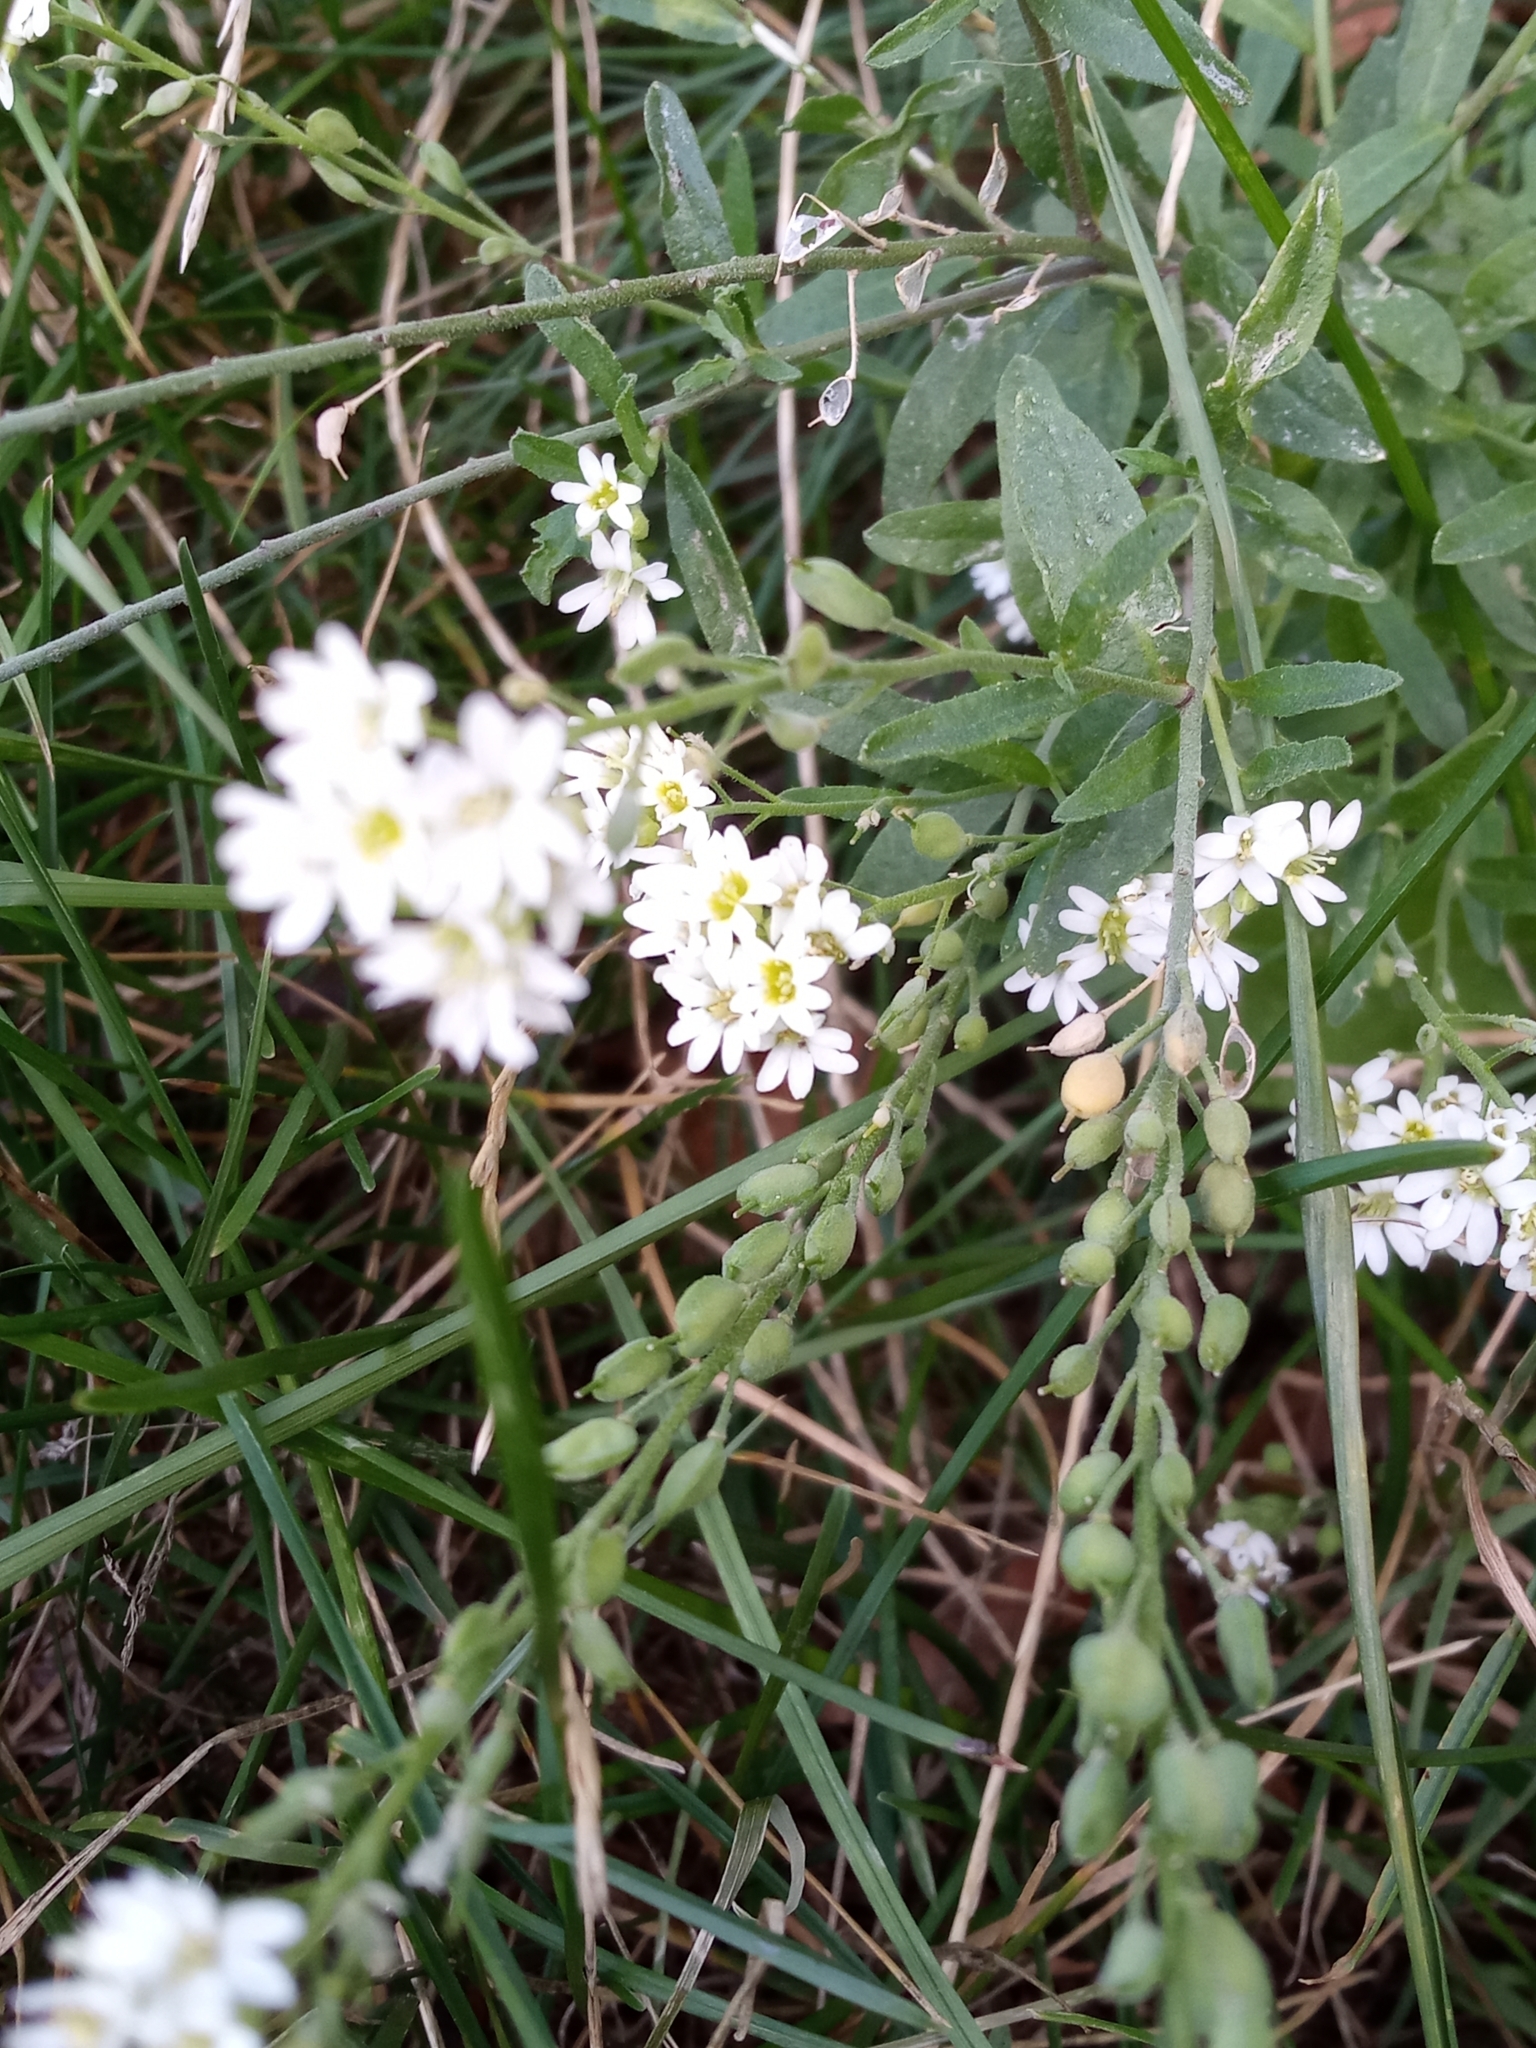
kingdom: Plantae
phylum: Tracheophyta
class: Magnoliopsida
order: Brassicales
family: Brassicaceae
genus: Berteroa
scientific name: Berteroa incana
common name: Hoary alison
